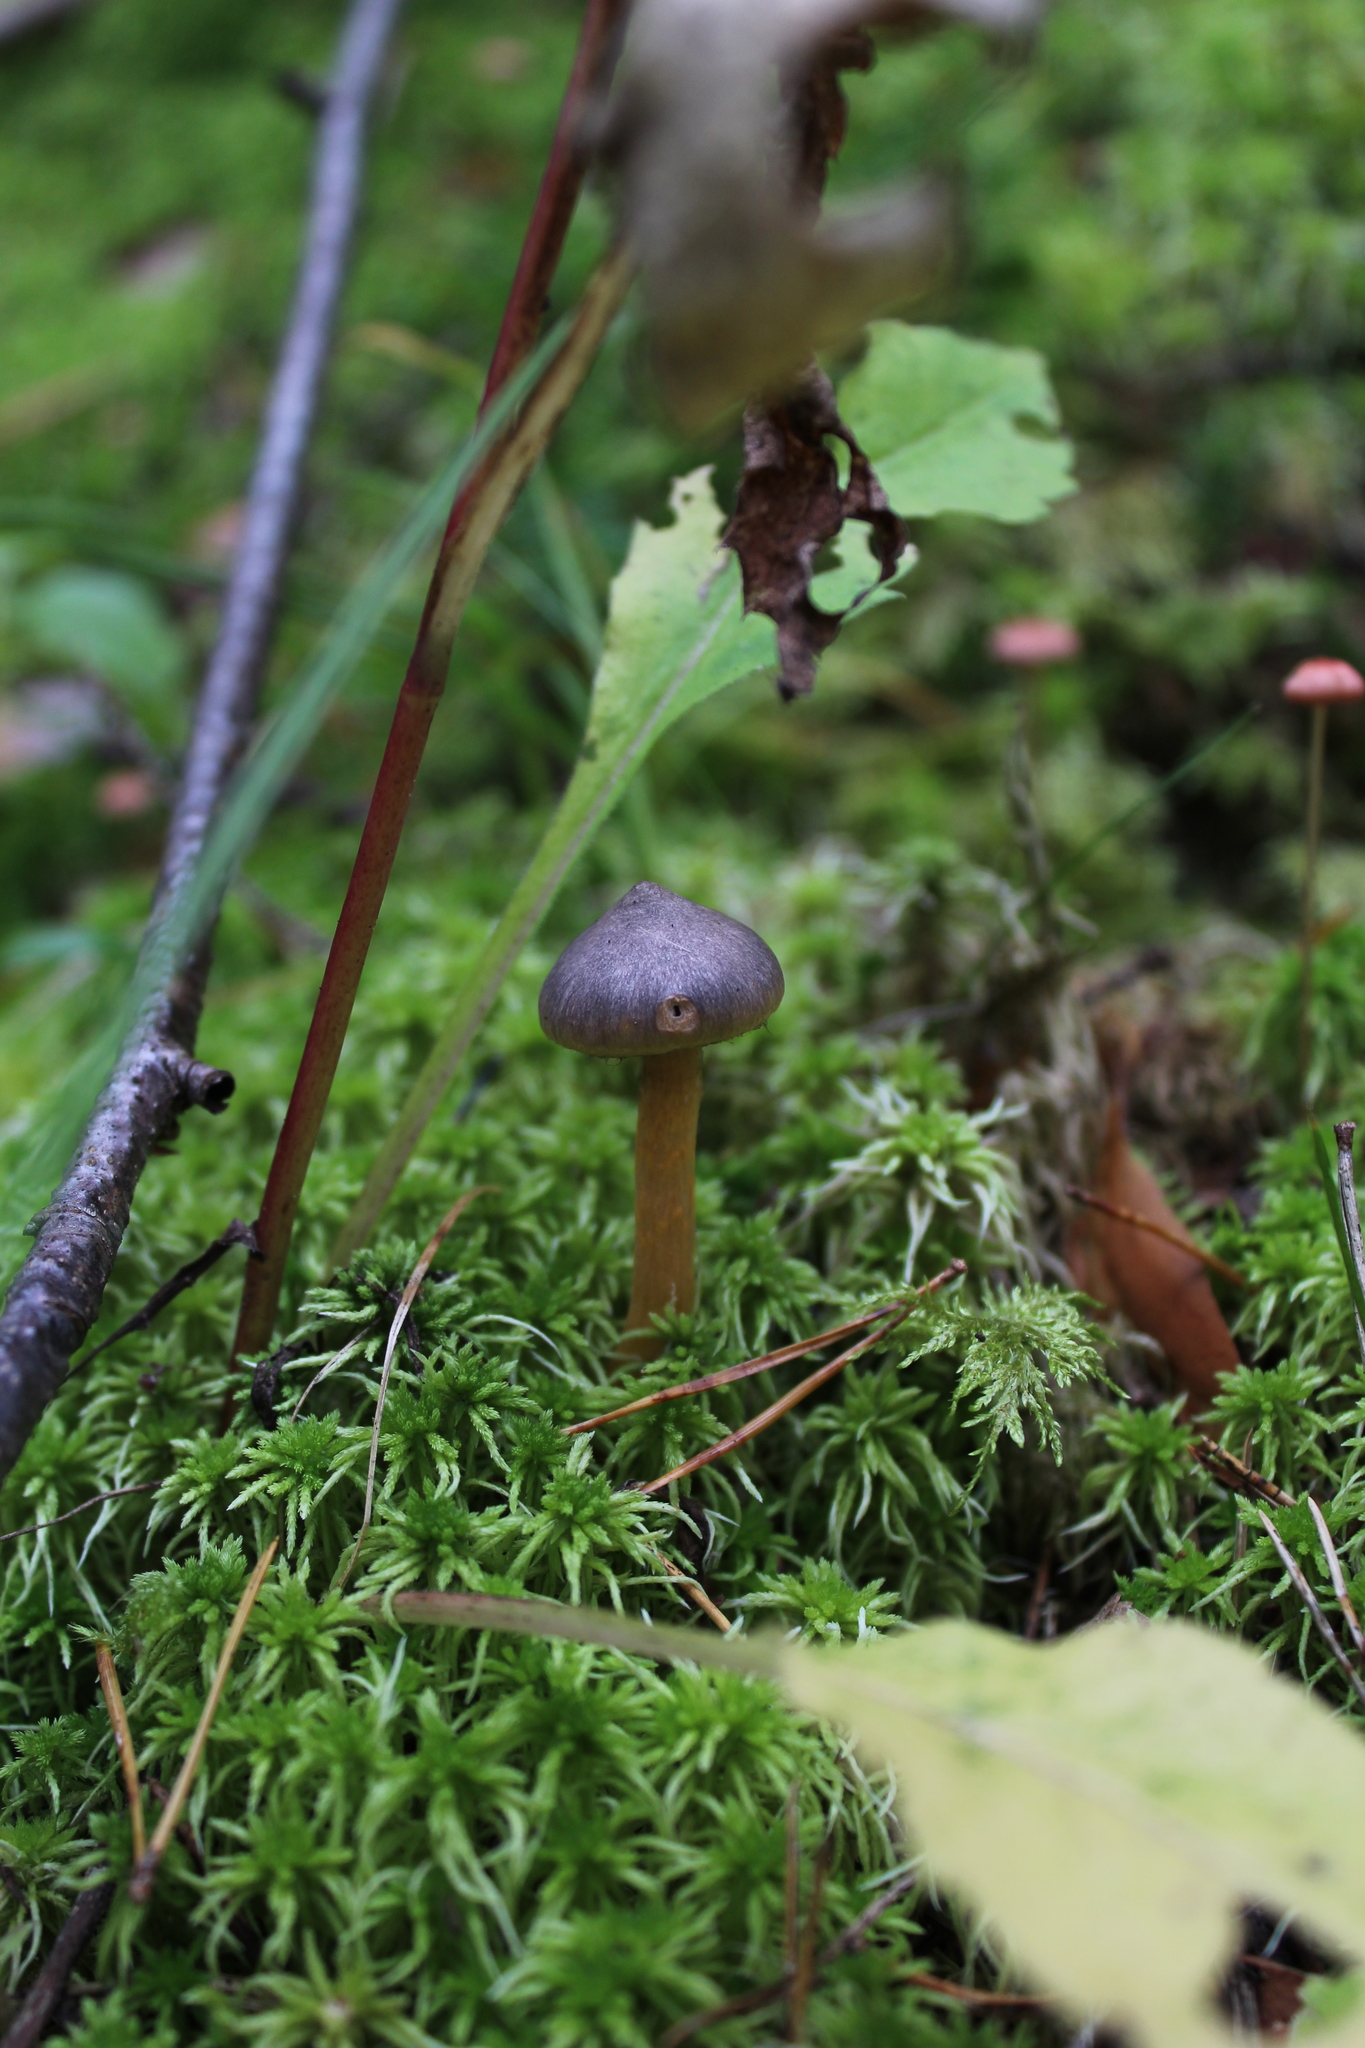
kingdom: Fungi
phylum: Basidiomycota
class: Agaricomycetes
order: Boletales
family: Gomphidiaceae
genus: Chroogomphus
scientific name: Chroogomphus rutilus
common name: Copper spike
